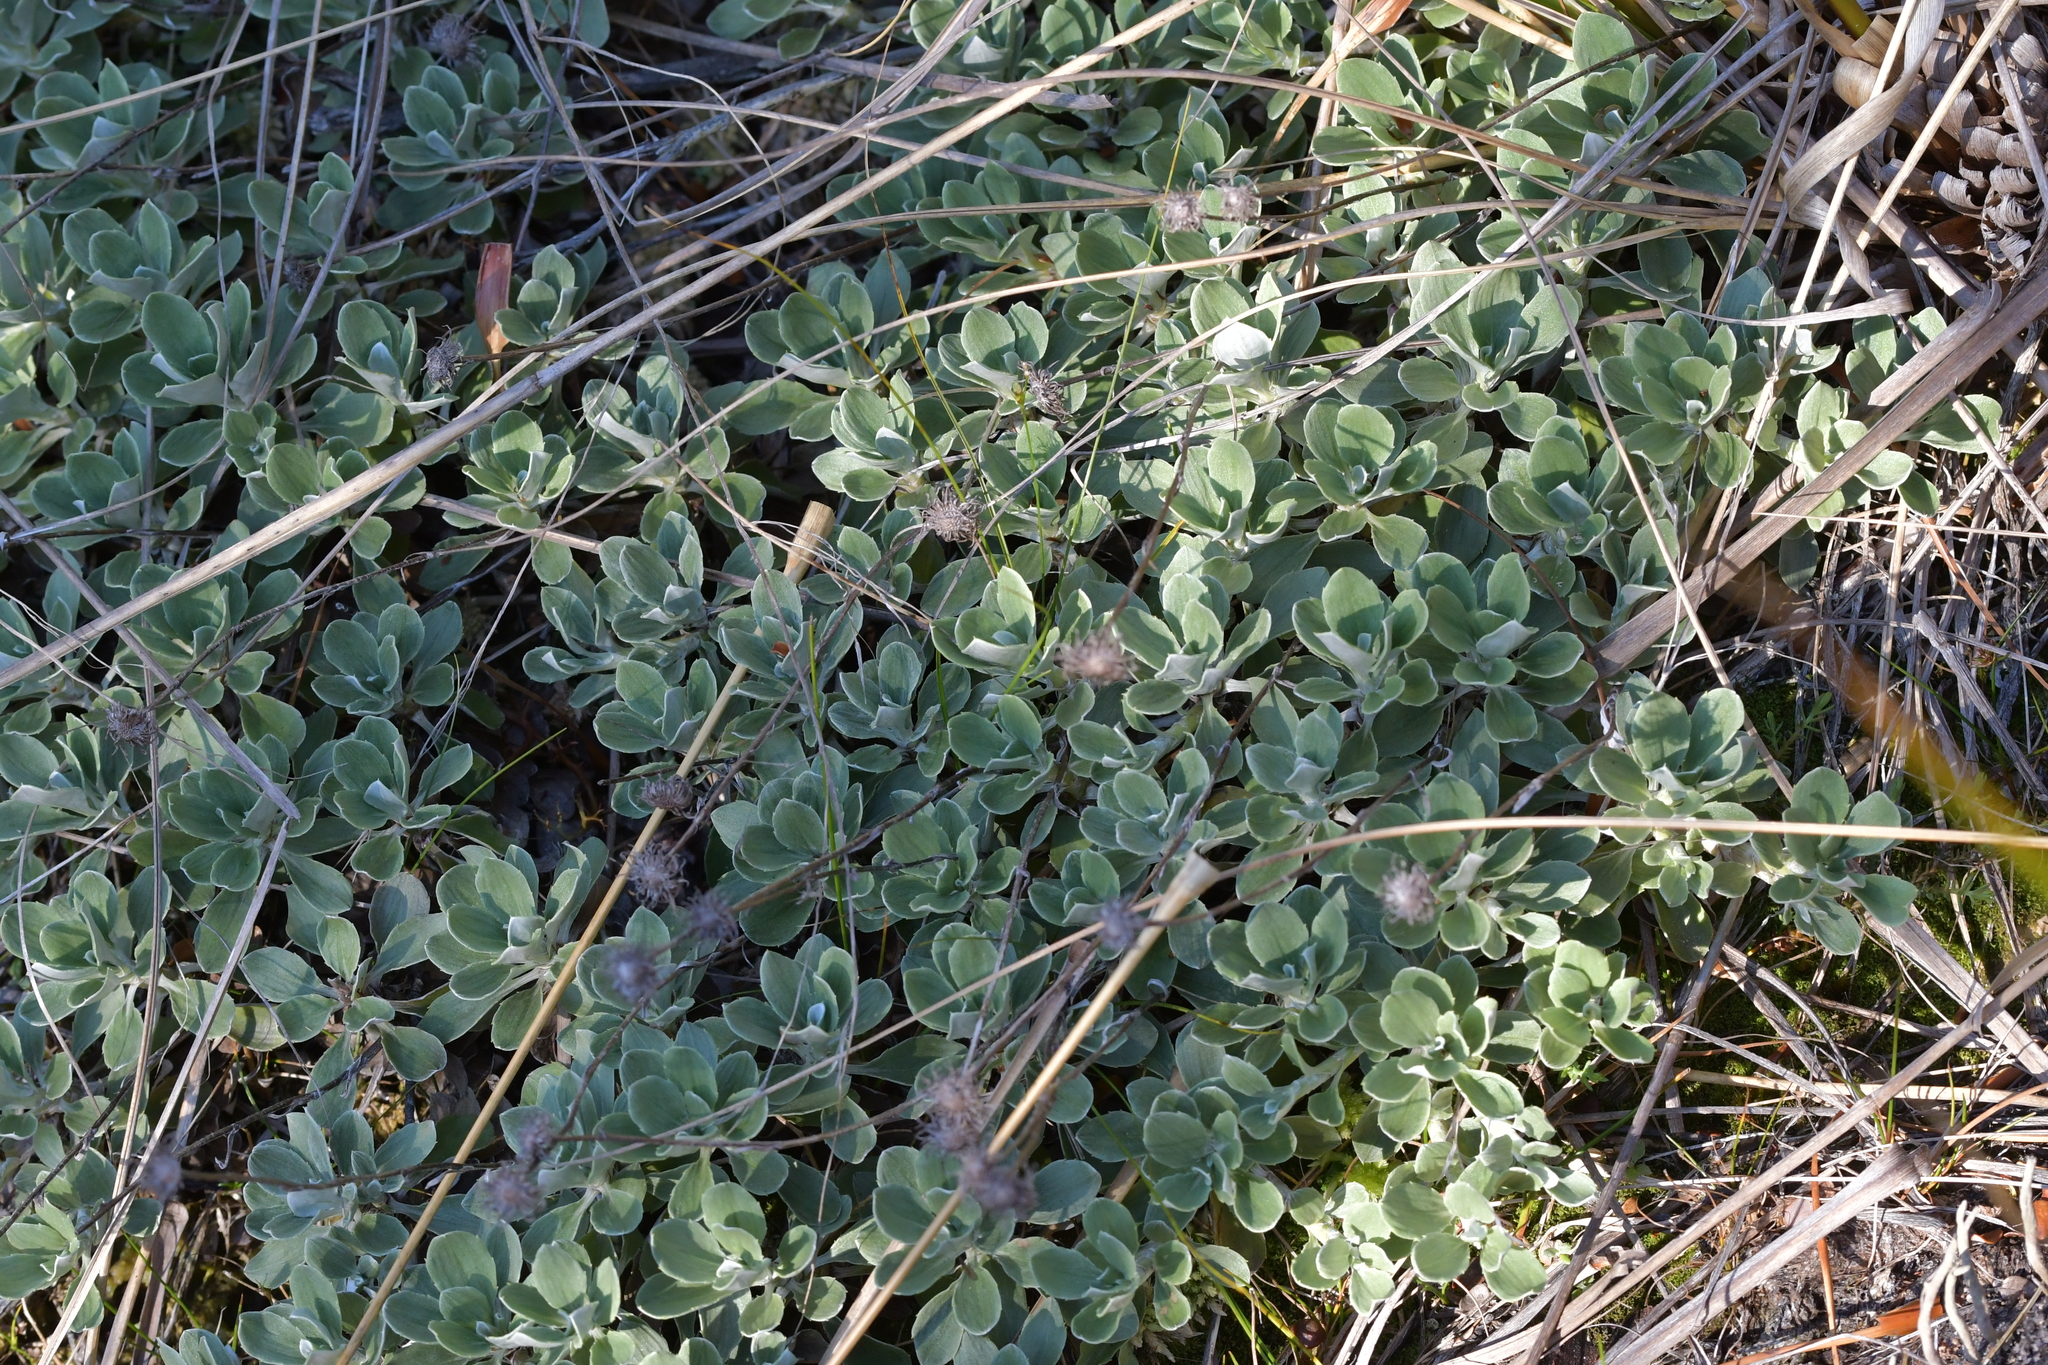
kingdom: Plantae
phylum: Tracheophyta
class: Magnoliopsida
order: Asterales
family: Asteraceae
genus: Celmisia
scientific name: Celmisia discolor
